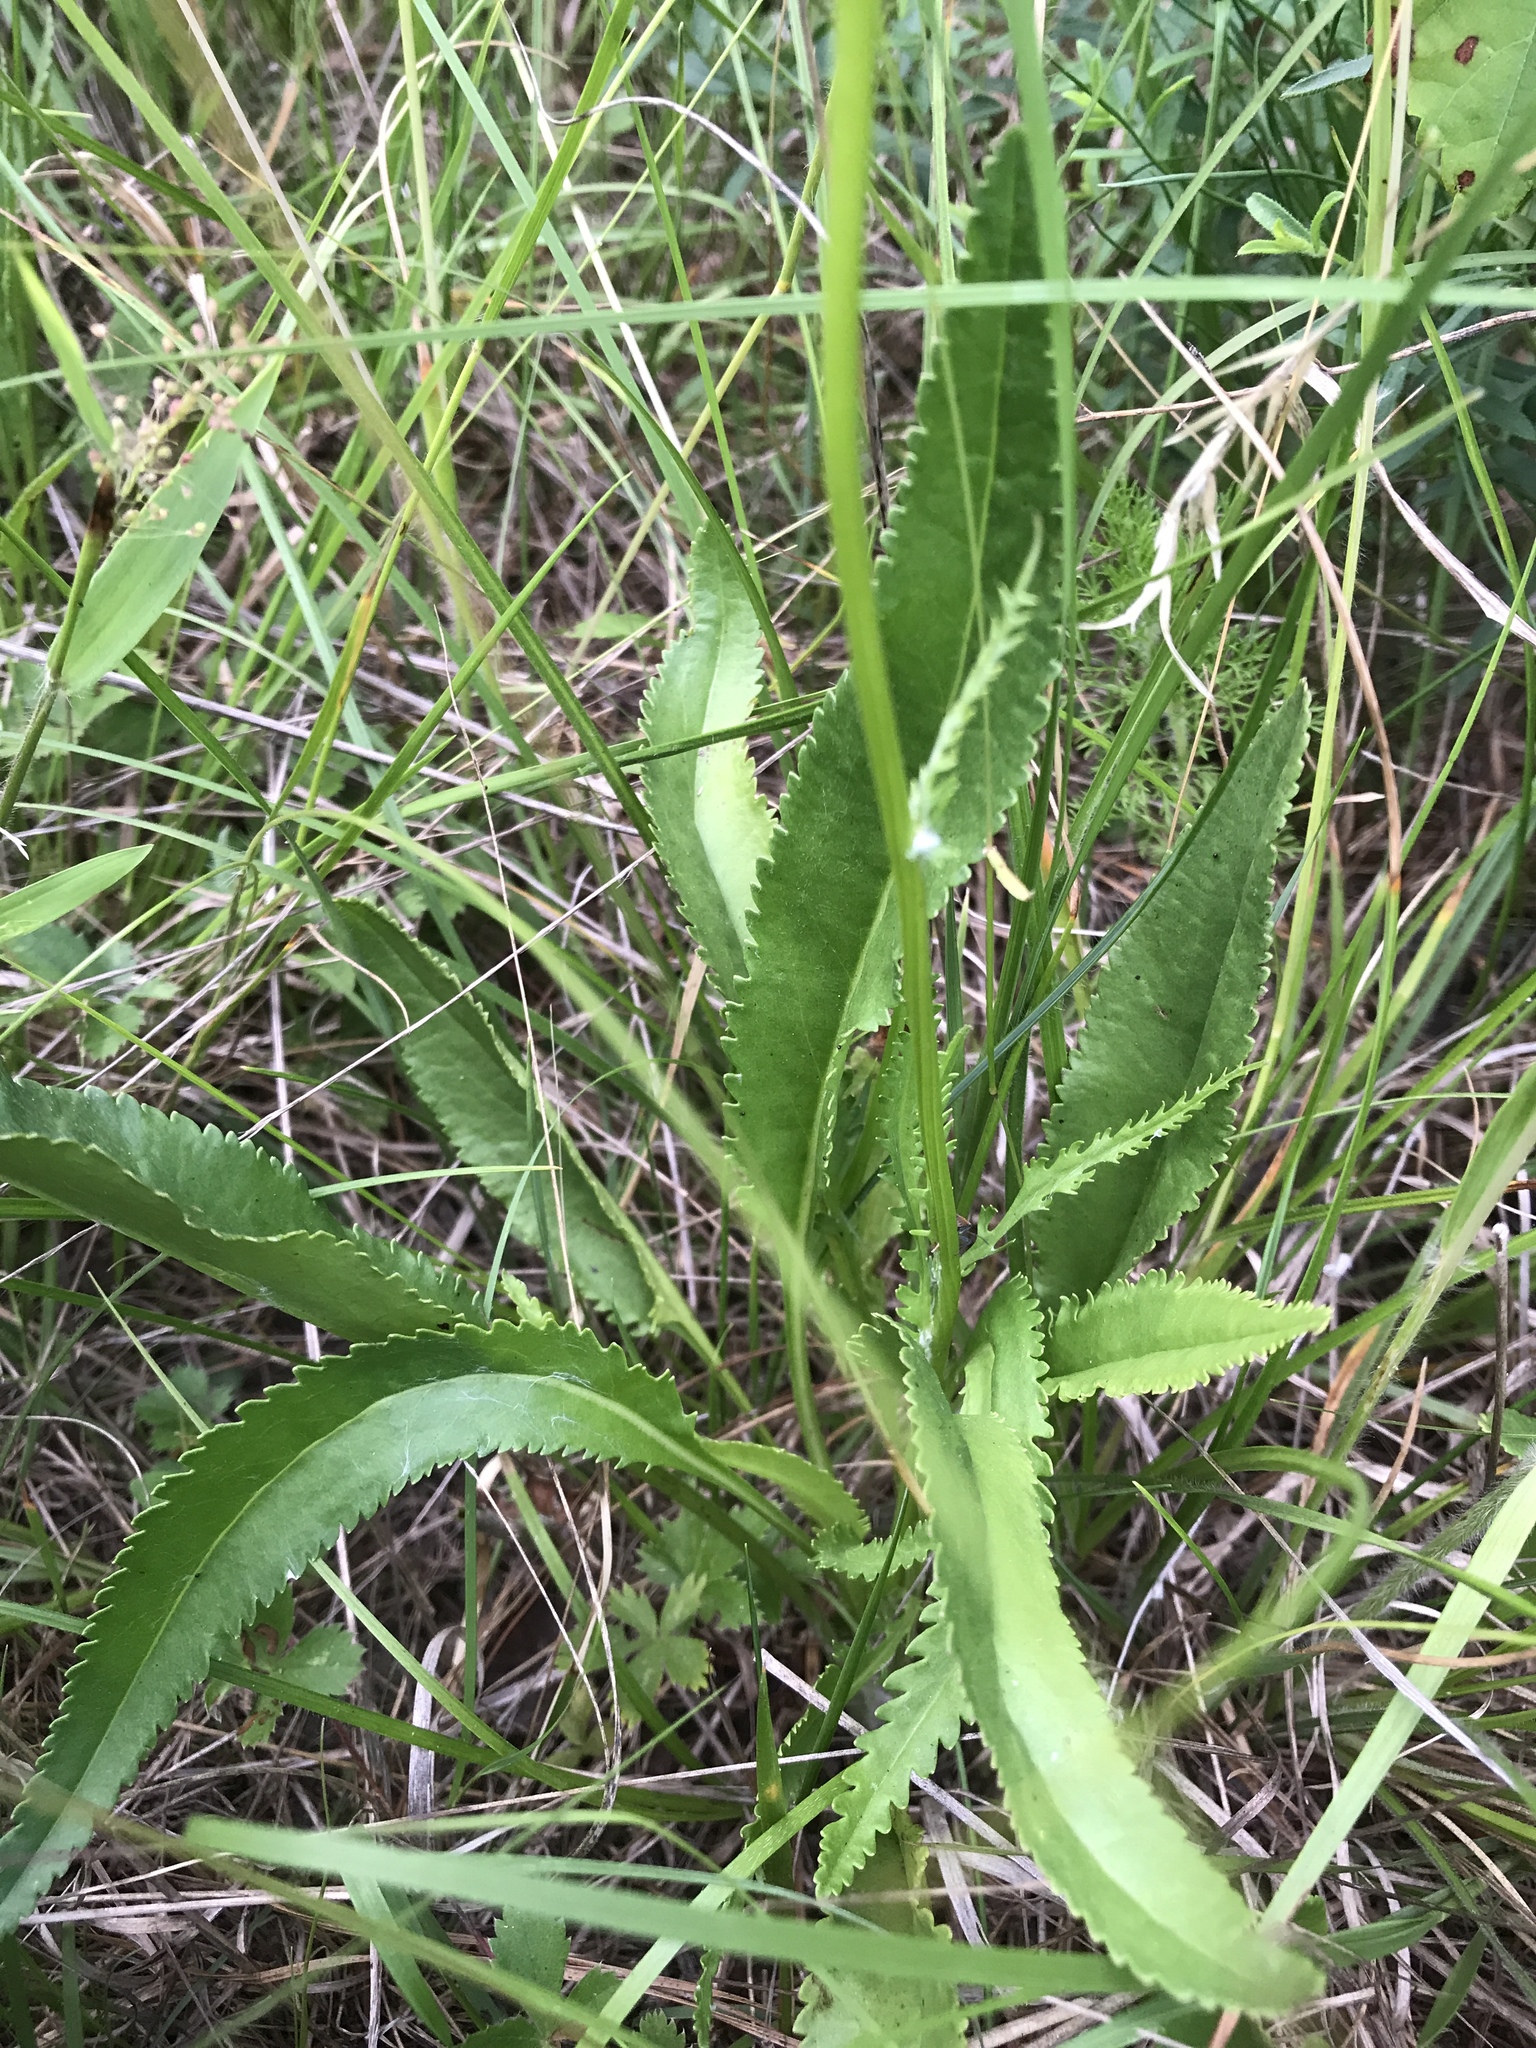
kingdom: Plantae
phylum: Tracheophyta
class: Magnoliopsida
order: Asterales
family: Asteraceae
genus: Packera
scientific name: Packera anonyma
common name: Small ragwort
